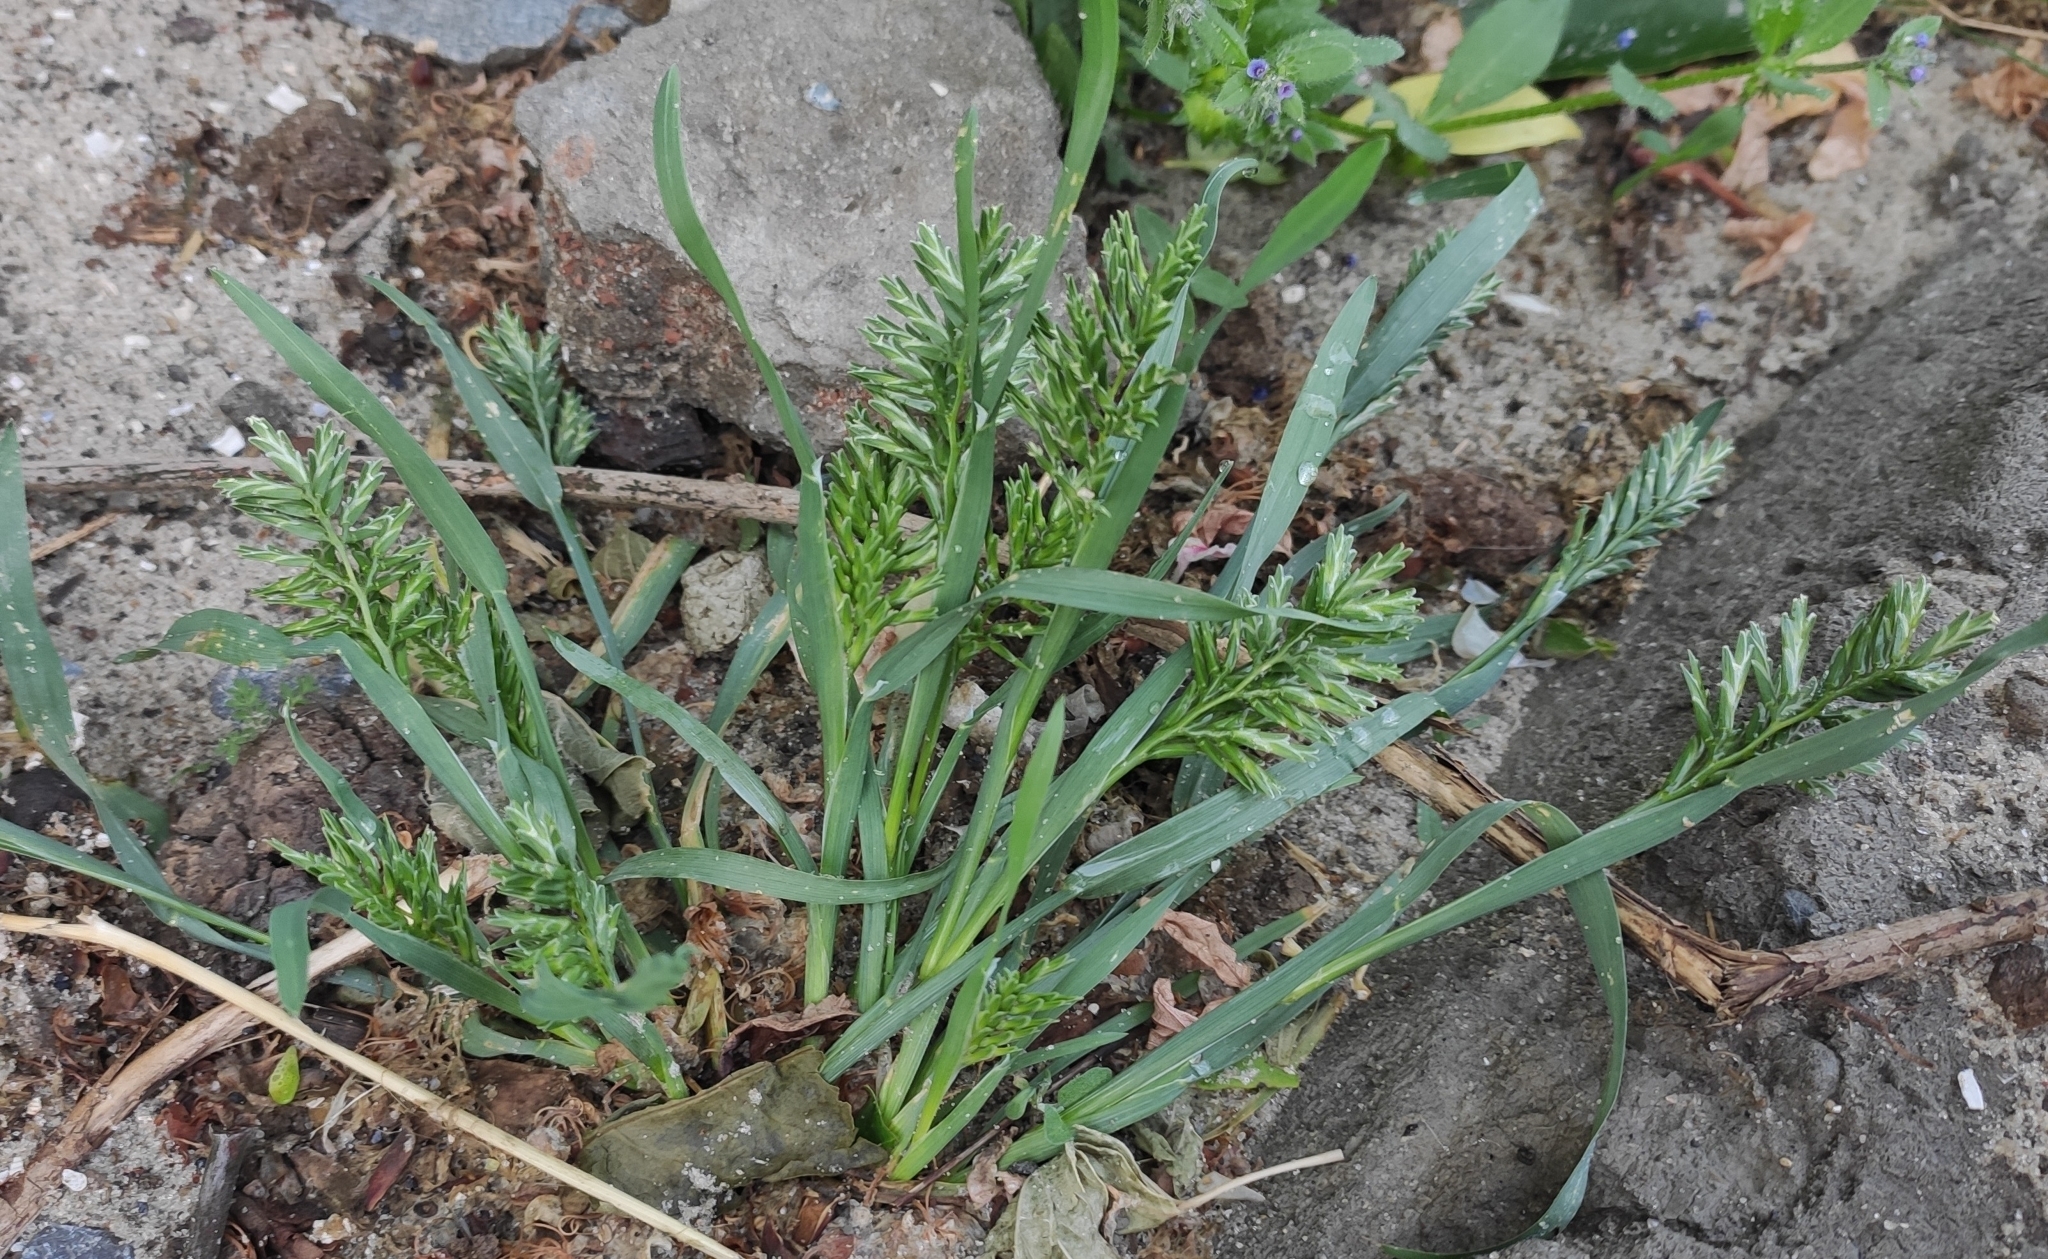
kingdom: Plantae
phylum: Tracheophyta
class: Liliopsida
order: Poales
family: Poaceae
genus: Sclerochloa
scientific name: Sclerochloa dura
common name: Common hardgrass
